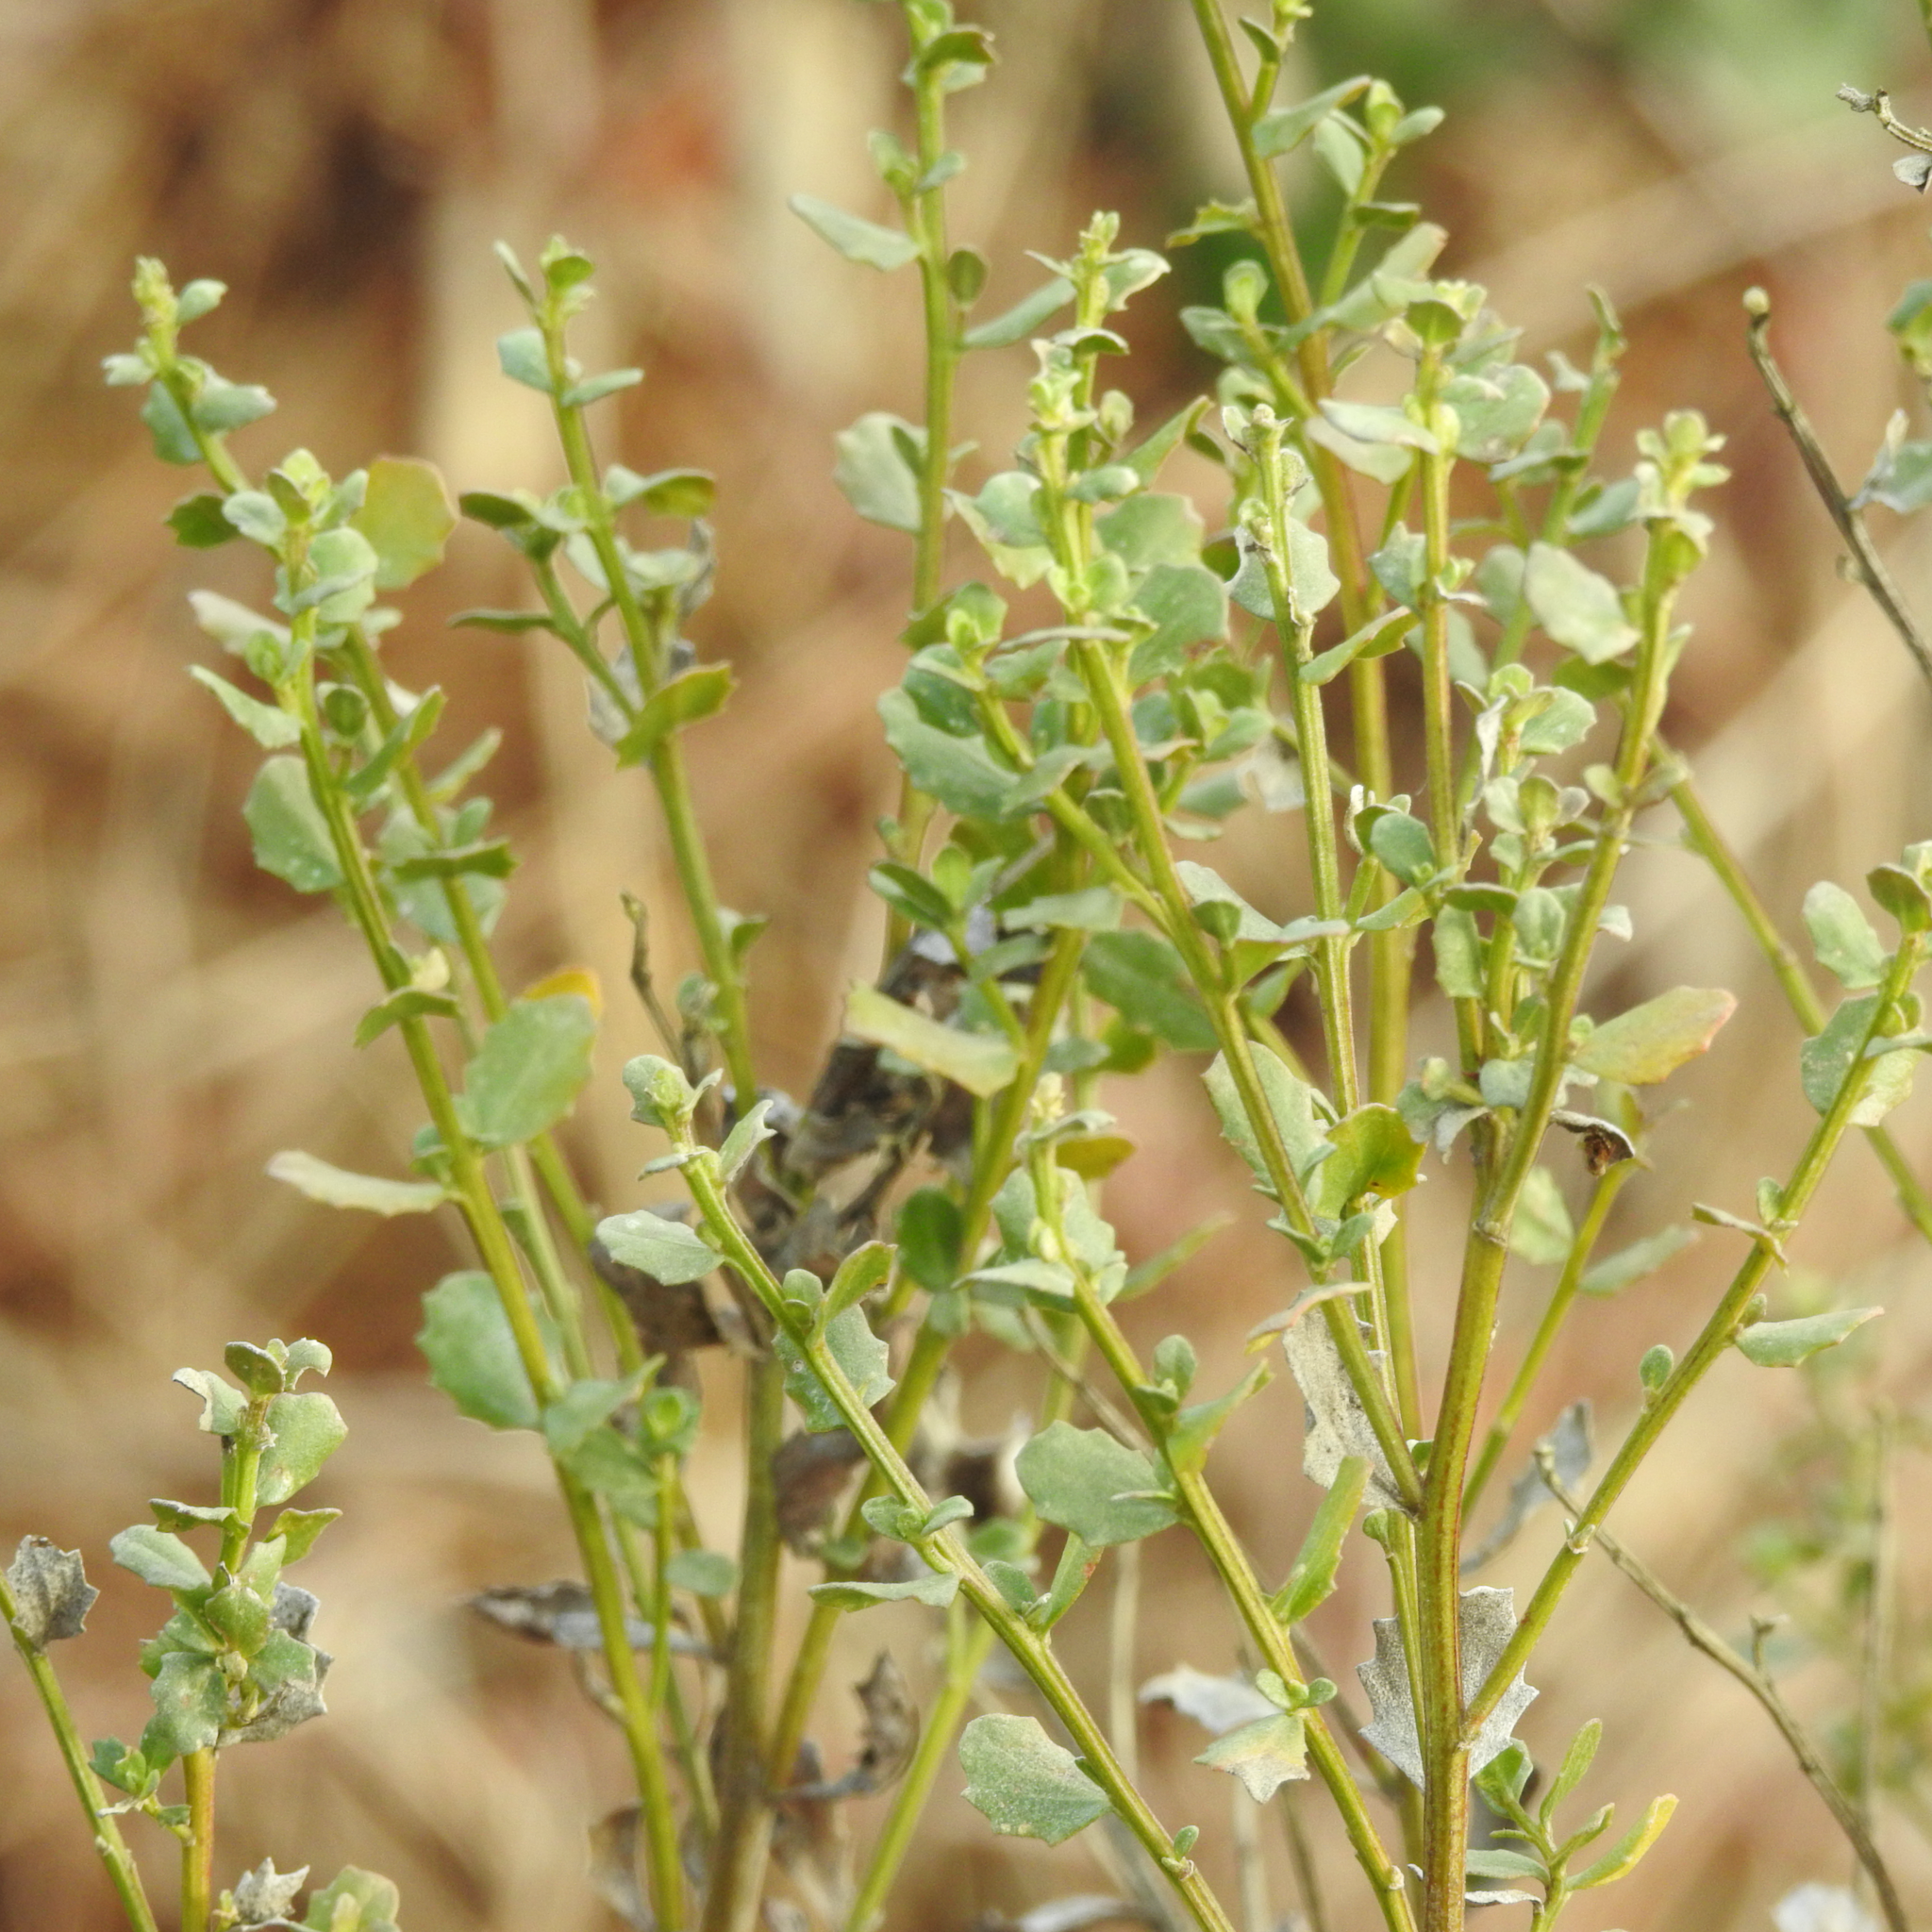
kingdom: Plantae
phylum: Tracheophyta
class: Magnoliopsida
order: Asterales
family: Asteraceae
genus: Baccharis
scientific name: Baccharis pilularis
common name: Coyotebrush
